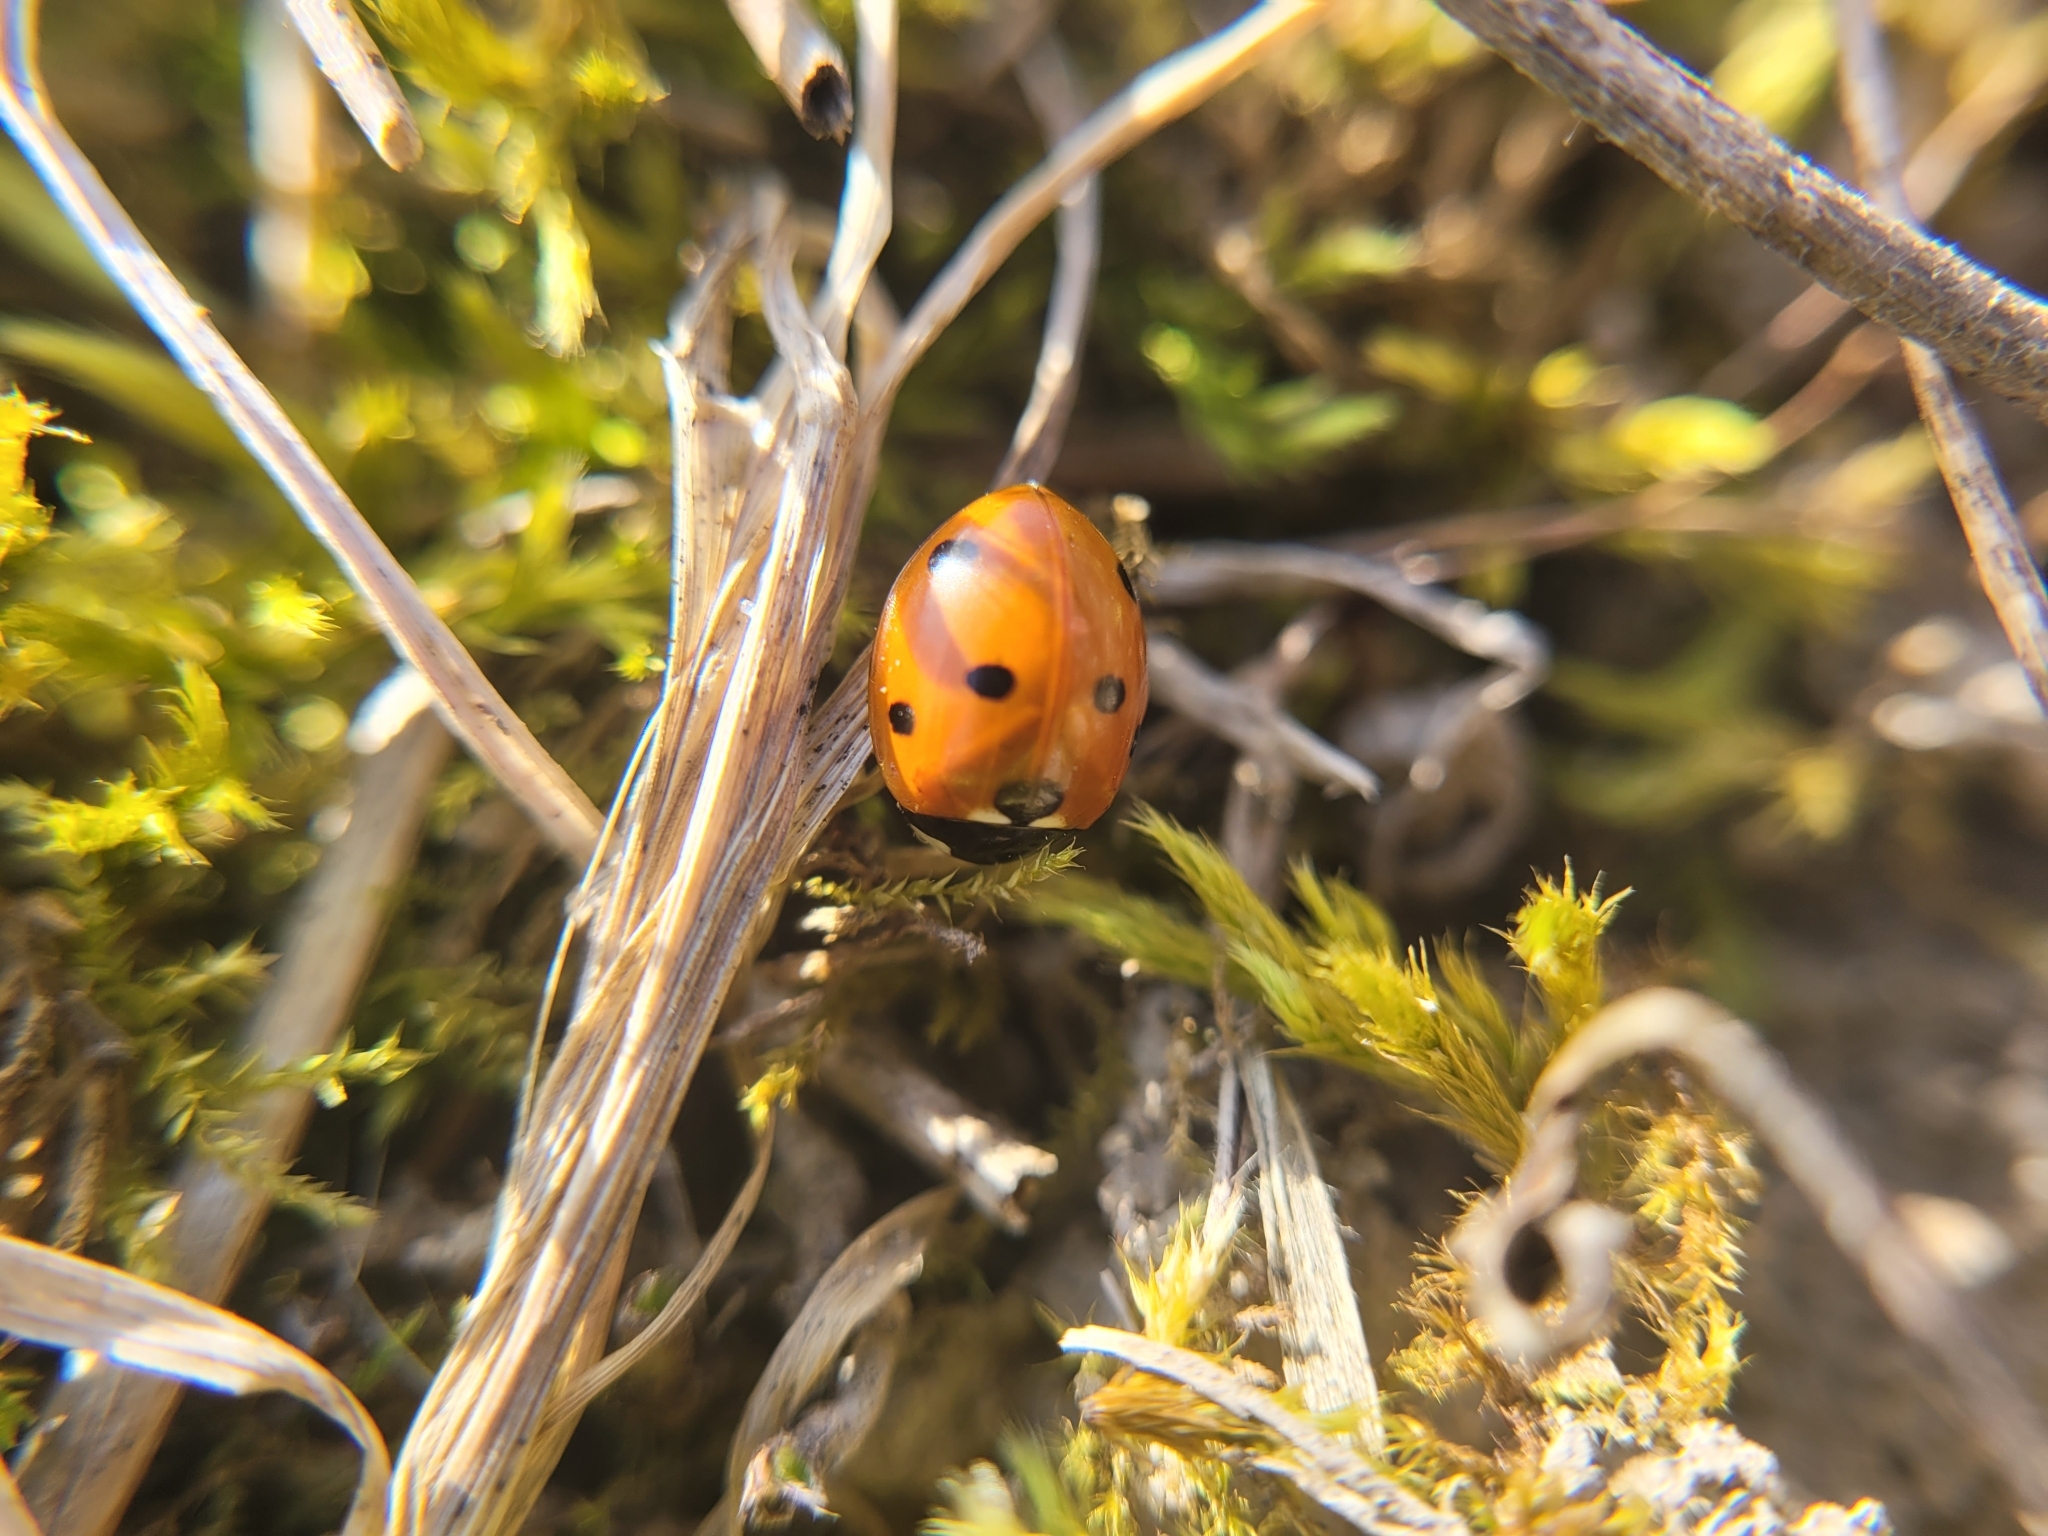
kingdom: Animalia
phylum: Arthropoda
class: Insecta
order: Coleoptera
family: Coccinellidae
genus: Coccinella
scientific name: Coccinella septempunctata
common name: Sevenspotted lady beetle
